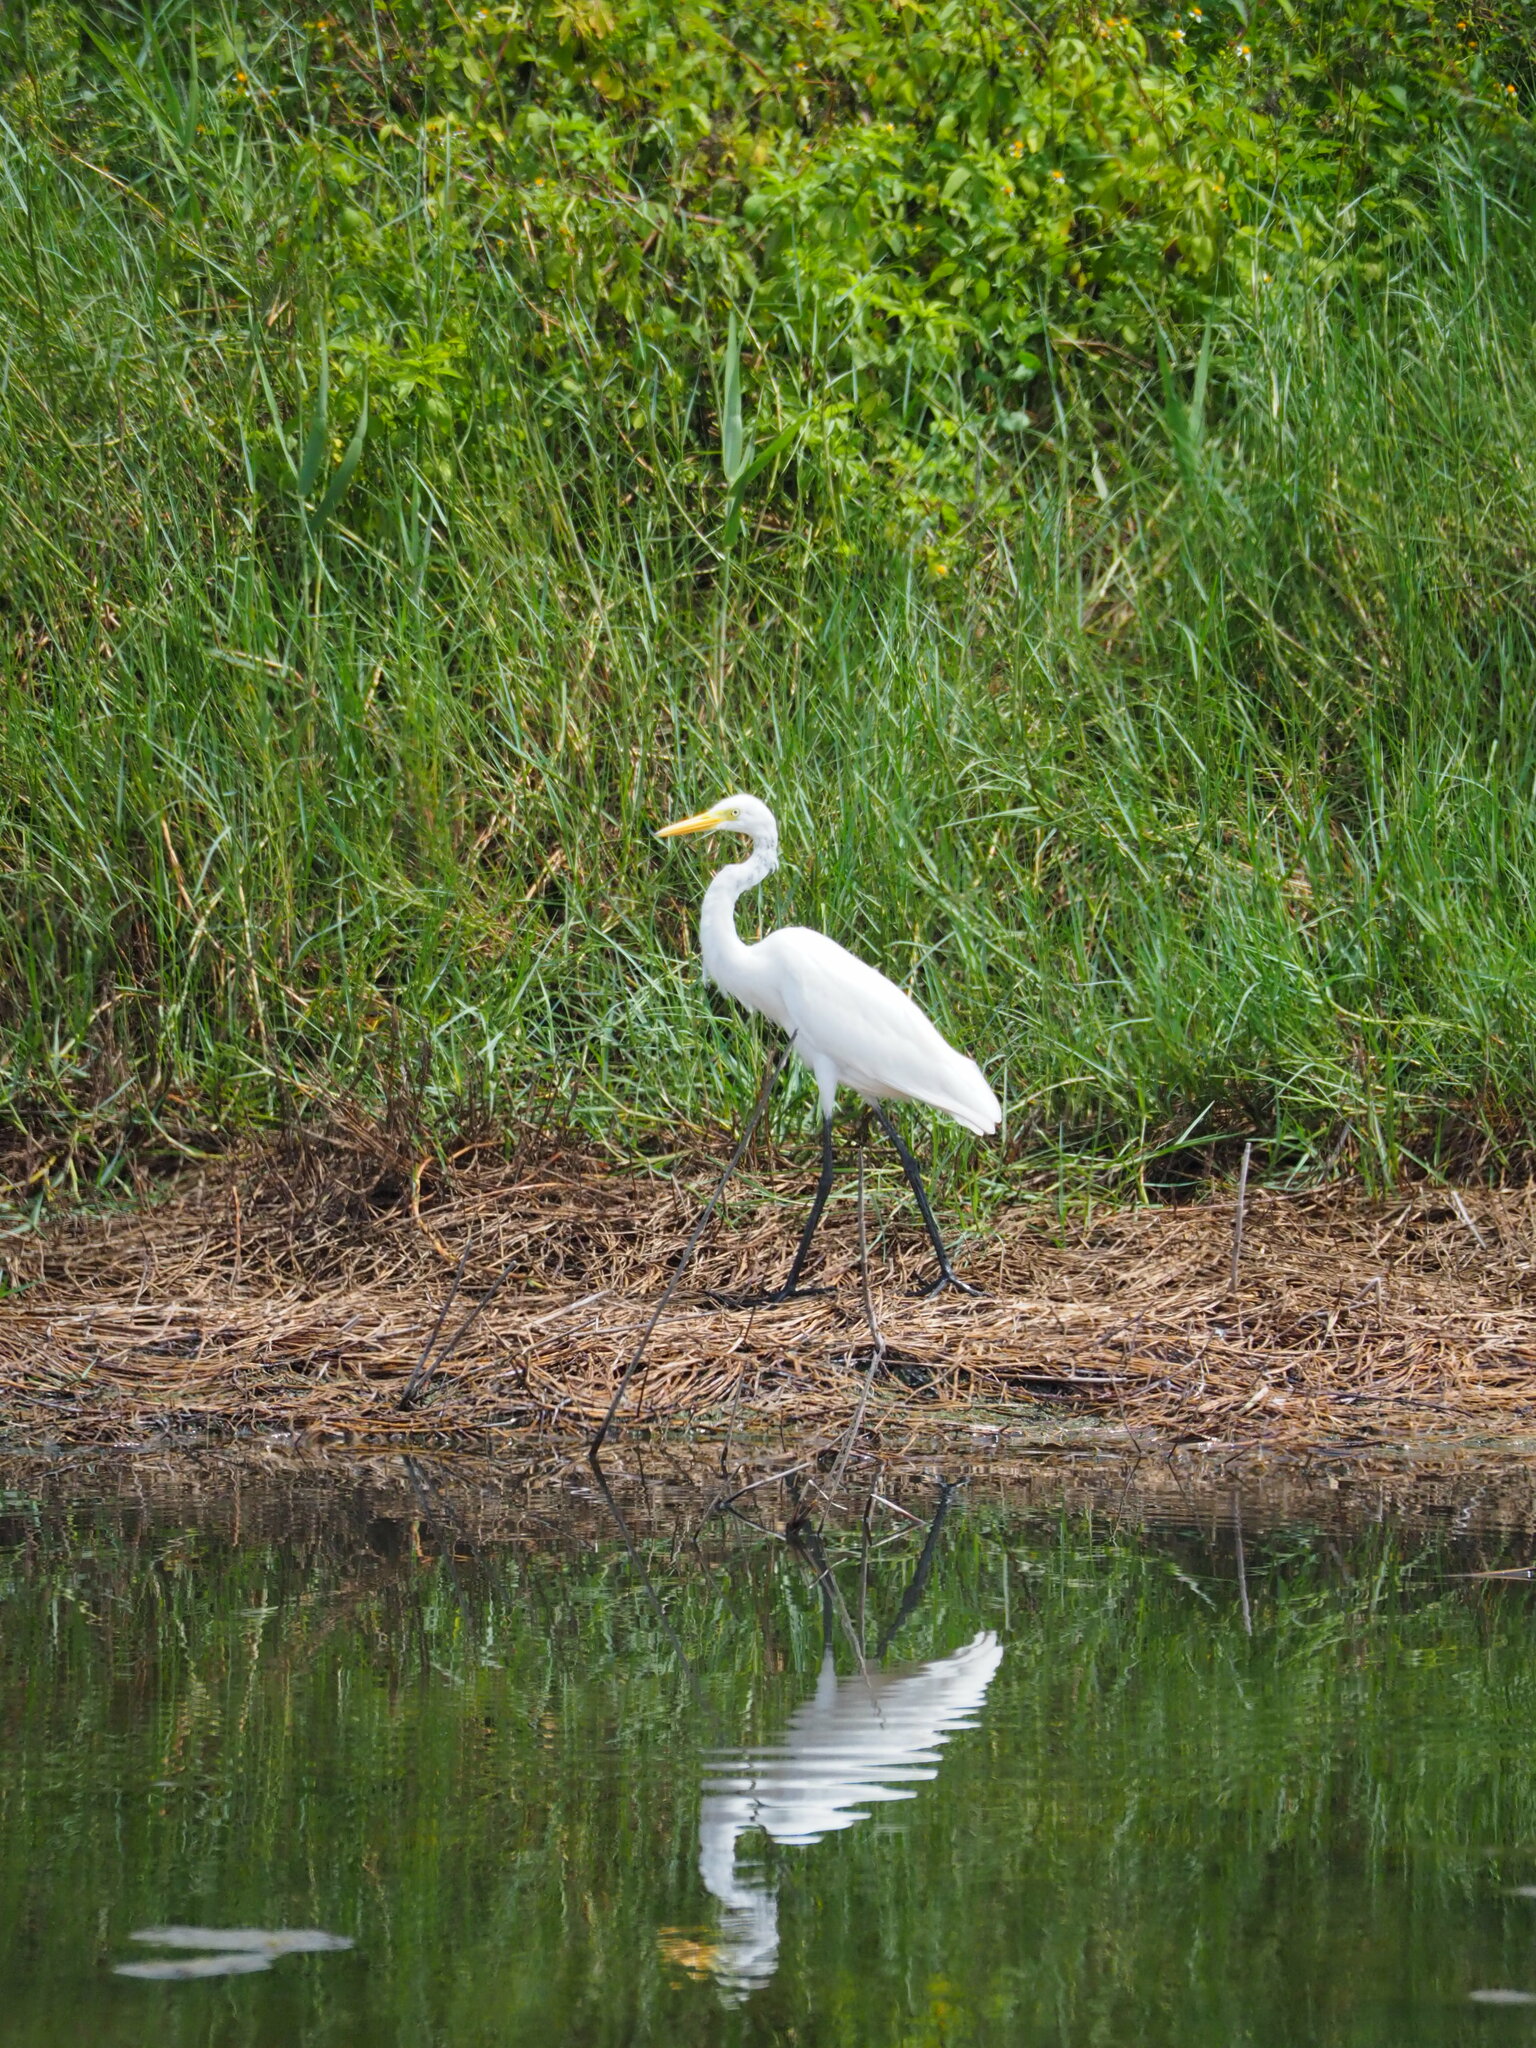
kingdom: Animalia
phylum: Chordata
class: Aves
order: Pelecaniformes
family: Ardeidae
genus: Egretta
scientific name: Egretta intermedia
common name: Intermediate egret
